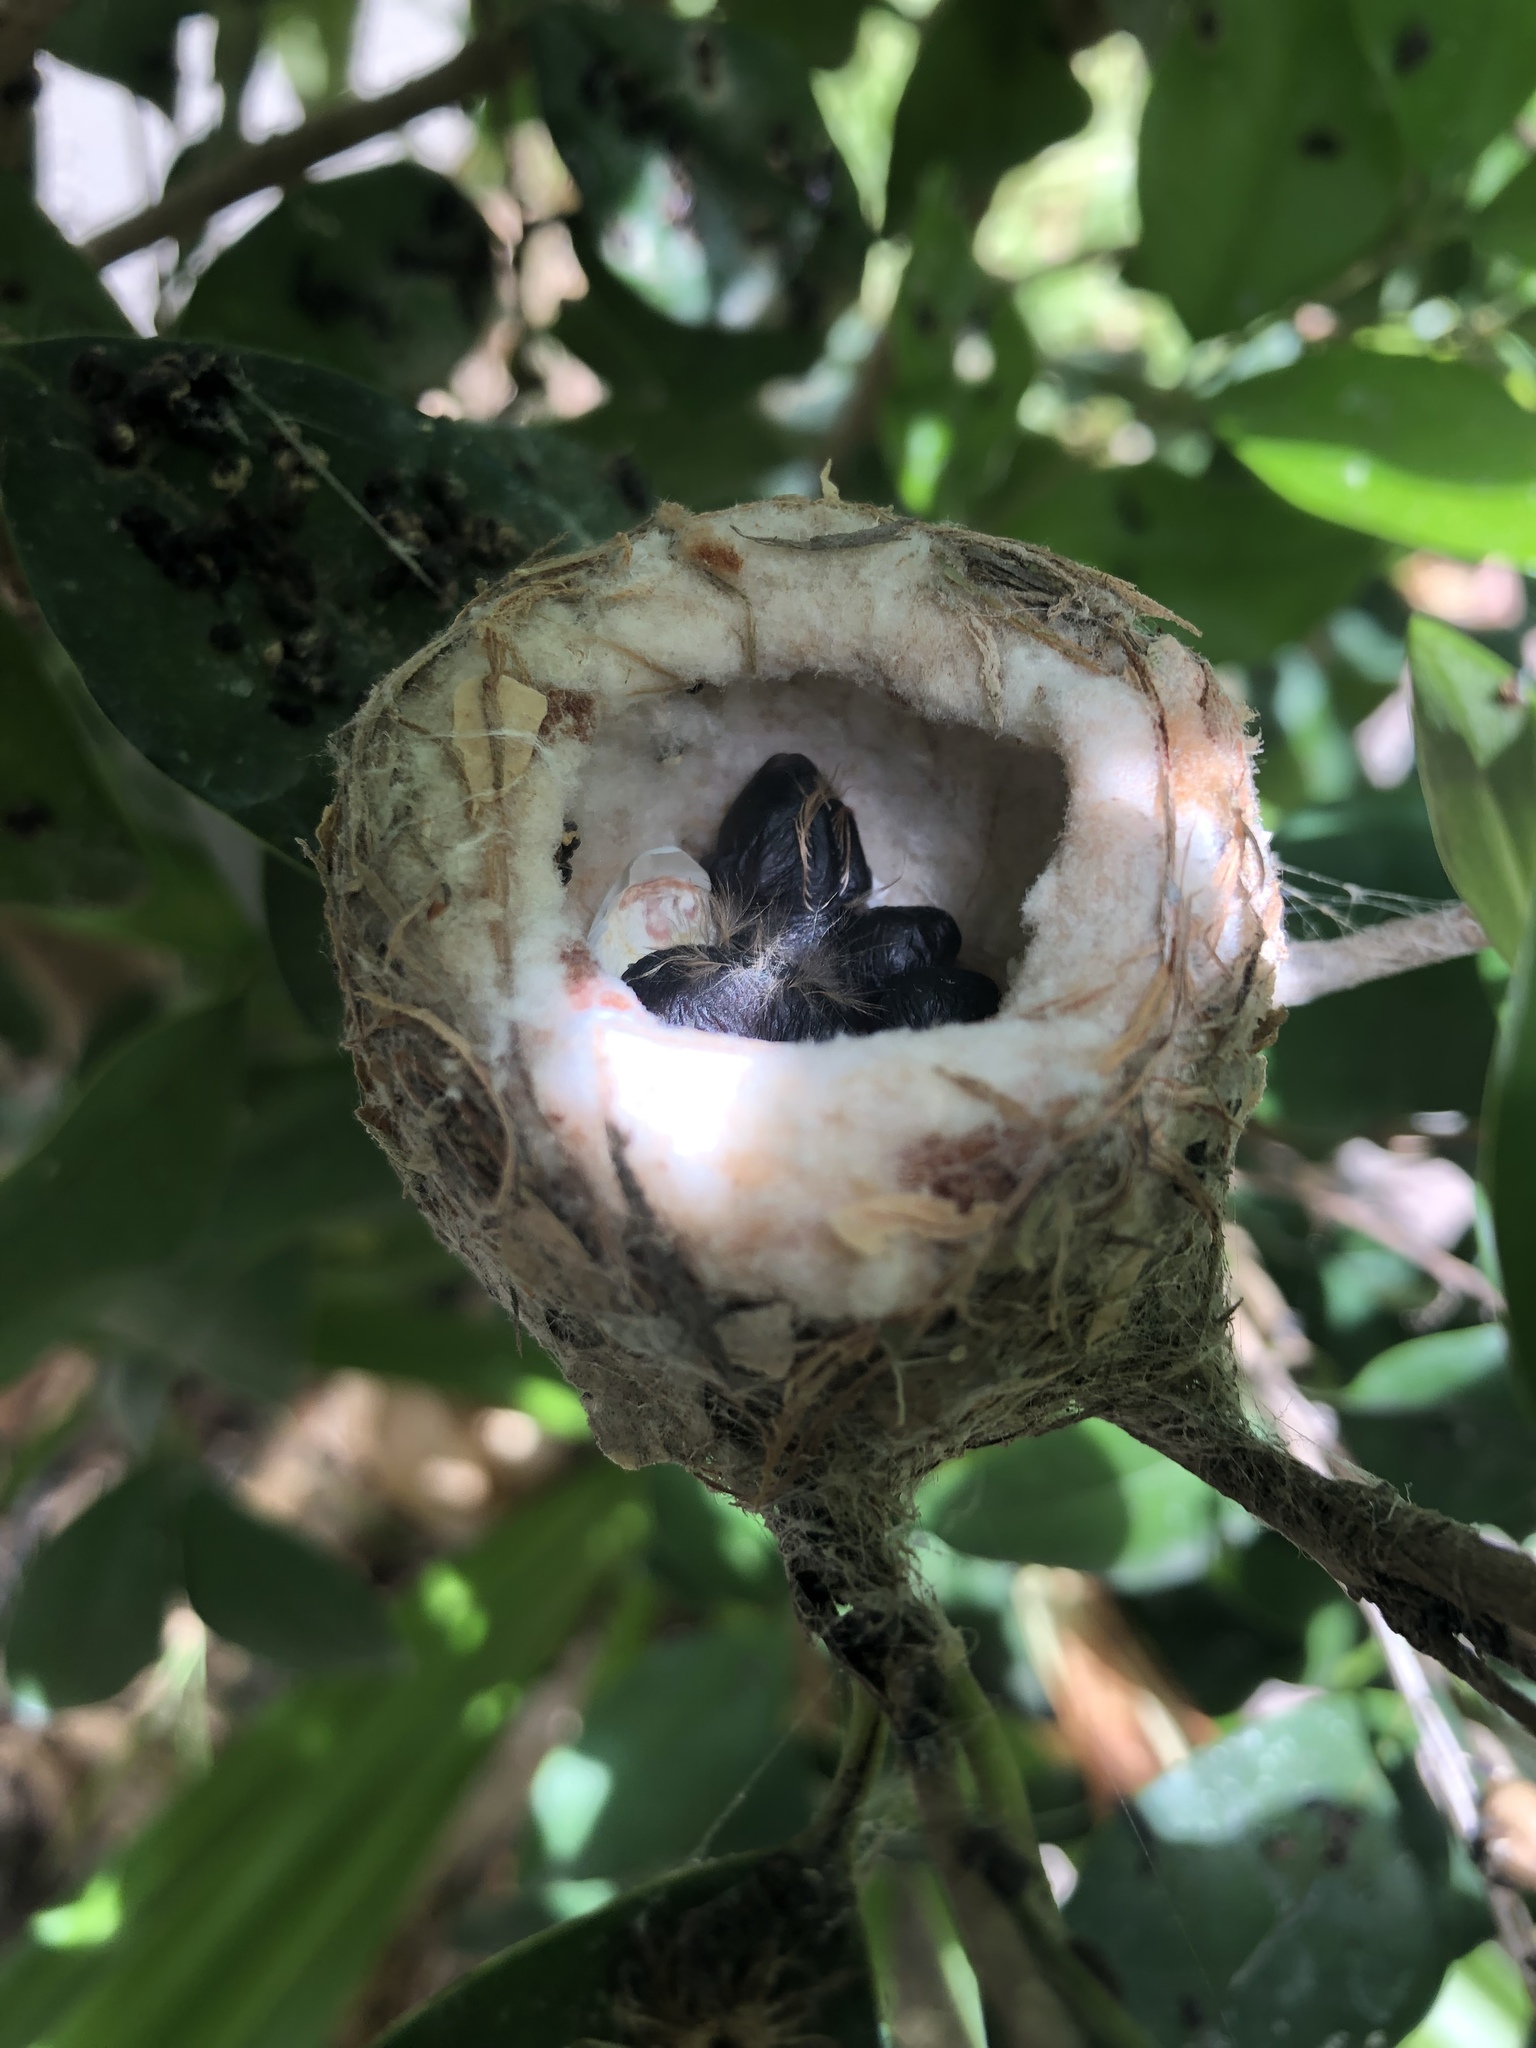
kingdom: Animalia
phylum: Chordata
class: Aves
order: Apodiformes
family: Trochilidae
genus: Calypte
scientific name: Calypte anna
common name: Anna's hummingbird
